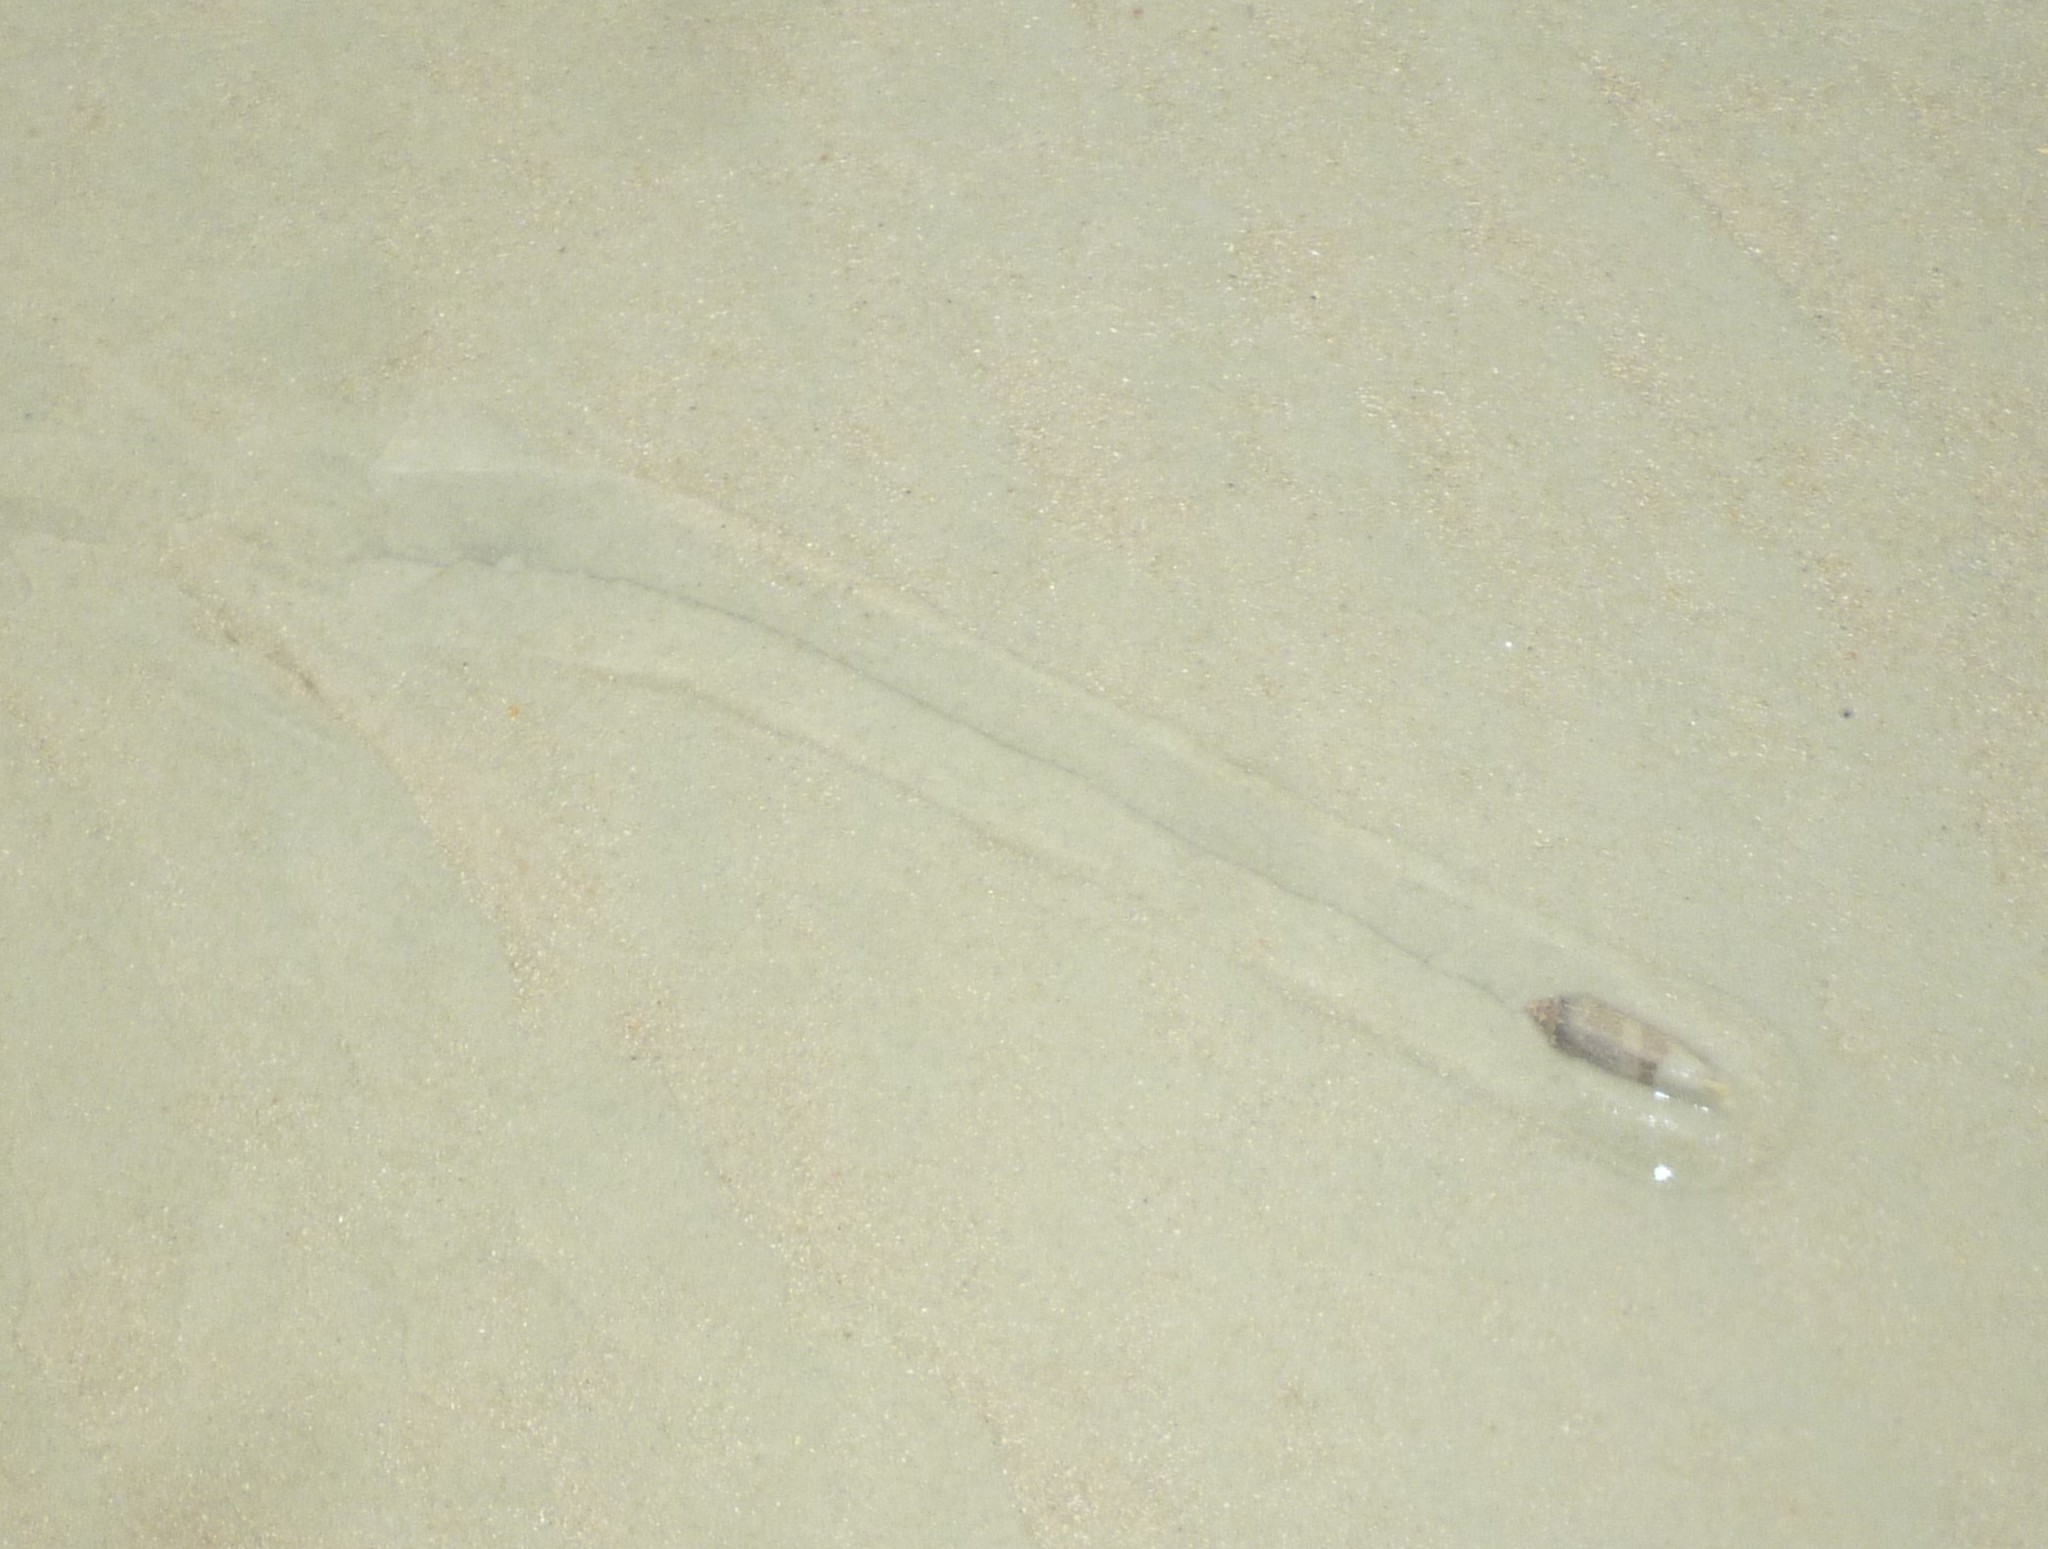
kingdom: Animalia
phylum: Mollusca
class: Gastropoda
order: Neogastropoda
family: Olividae
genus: Oliva
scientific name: Oliva sayana
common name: Lettered olive
